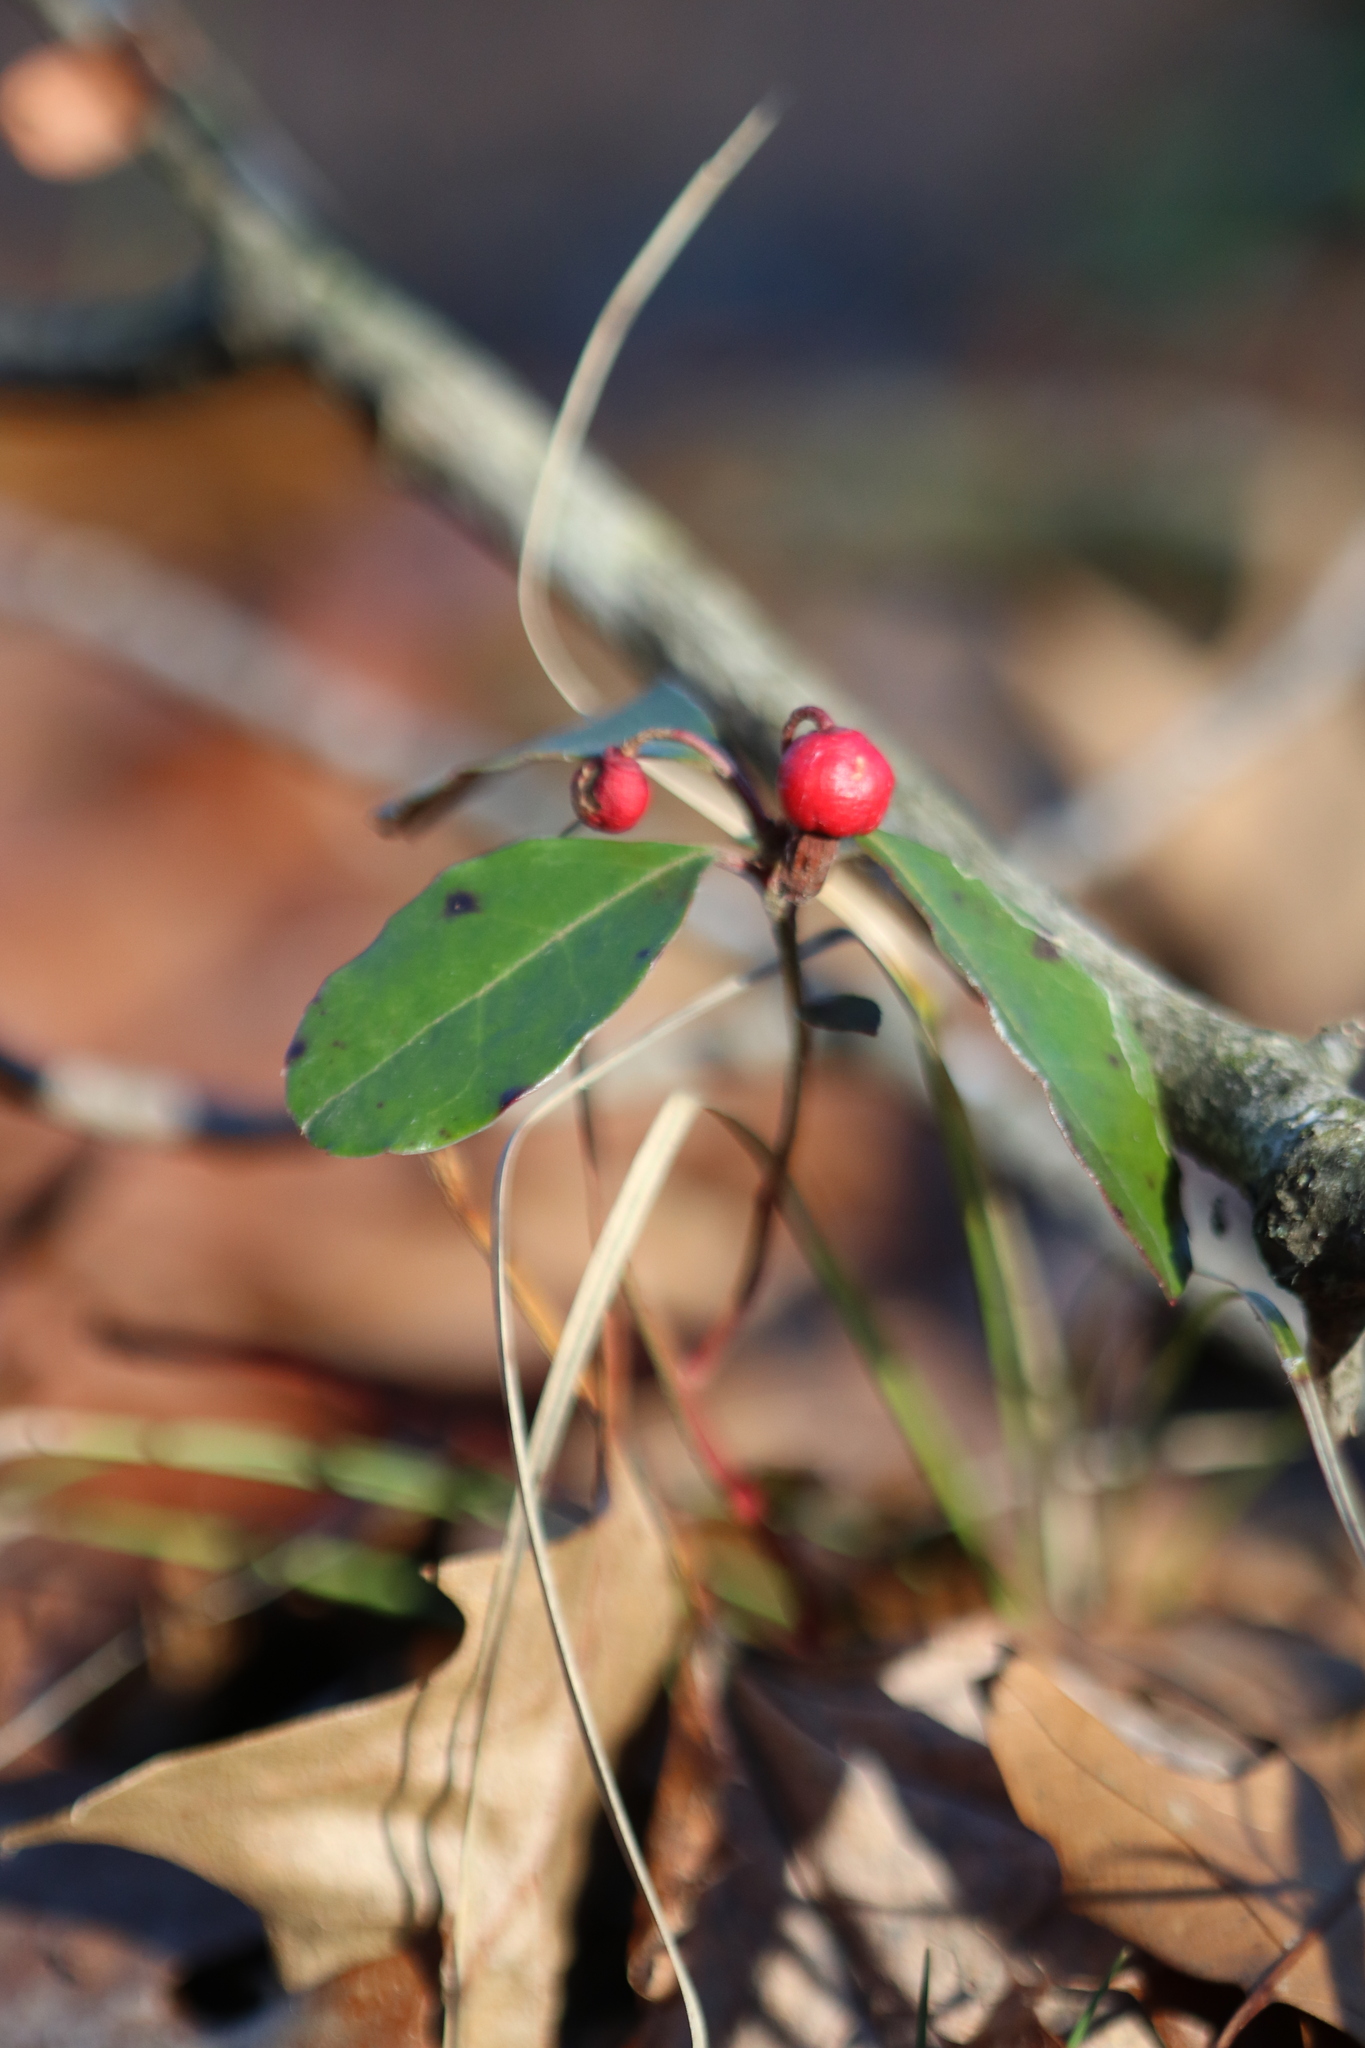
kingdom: Plantae
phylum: Tracheophyta
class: Magnoliopsida
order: Ericales
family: Ericaceae
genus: Gaultheria
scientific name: Gaultheria procumbens
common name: Checkerberry
